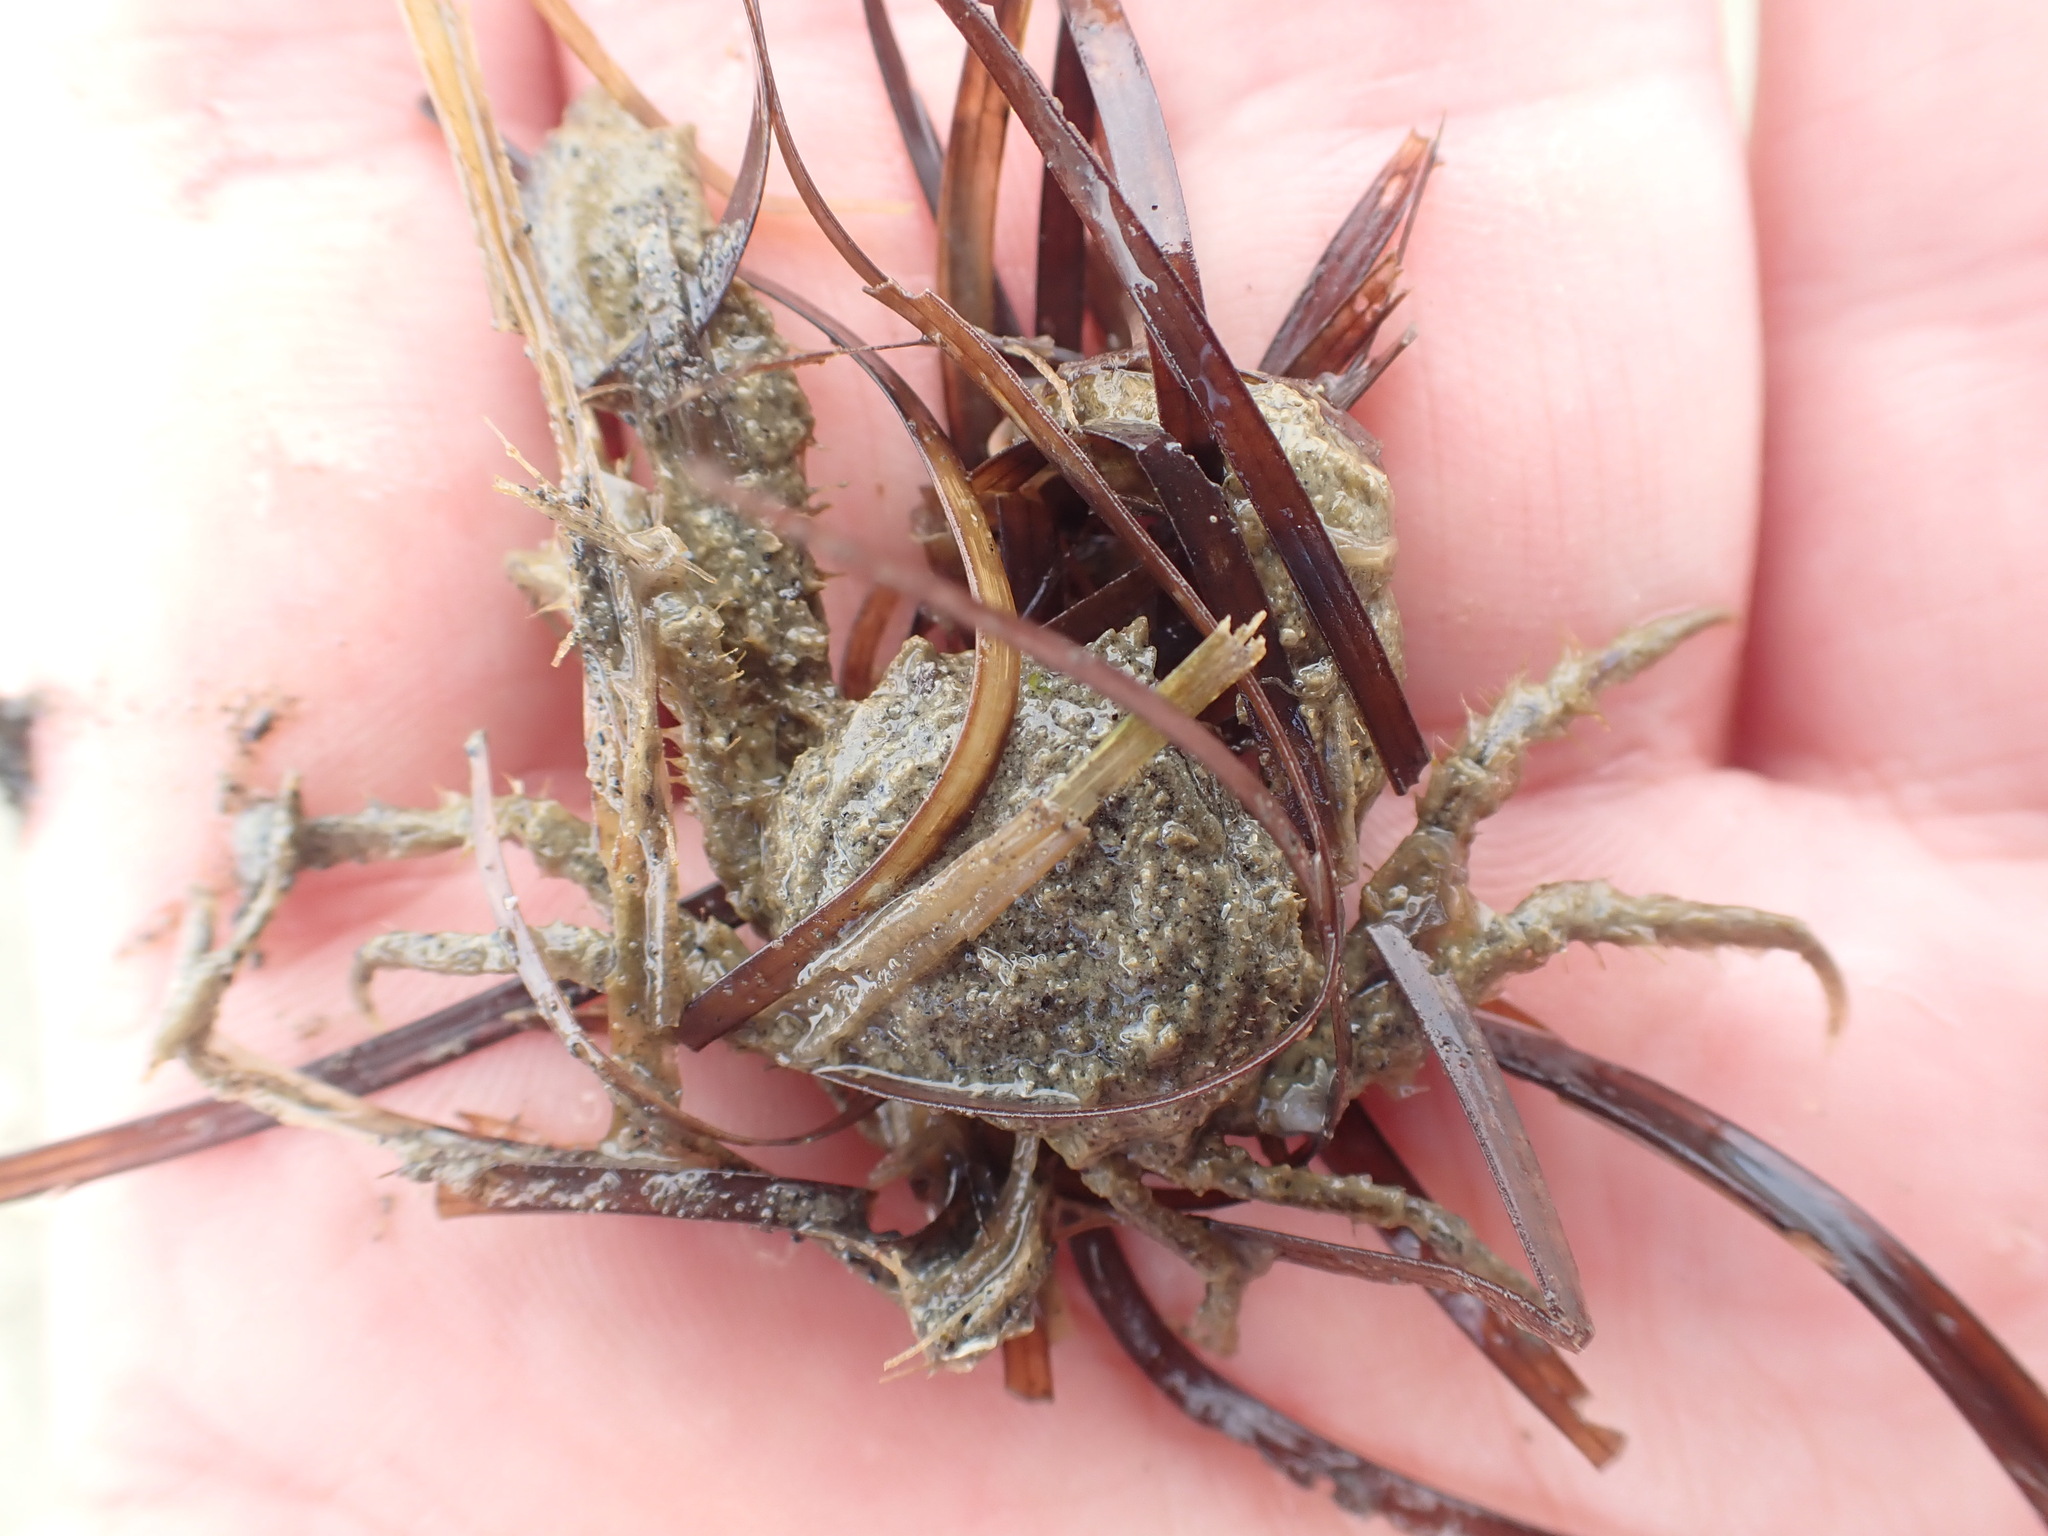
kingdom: Animalia
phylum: Arthropoda
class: Malacostraca
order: Decapoda
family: Hymenosomatidae
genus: Halicarcinus
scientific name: Halicarcinus whitei
